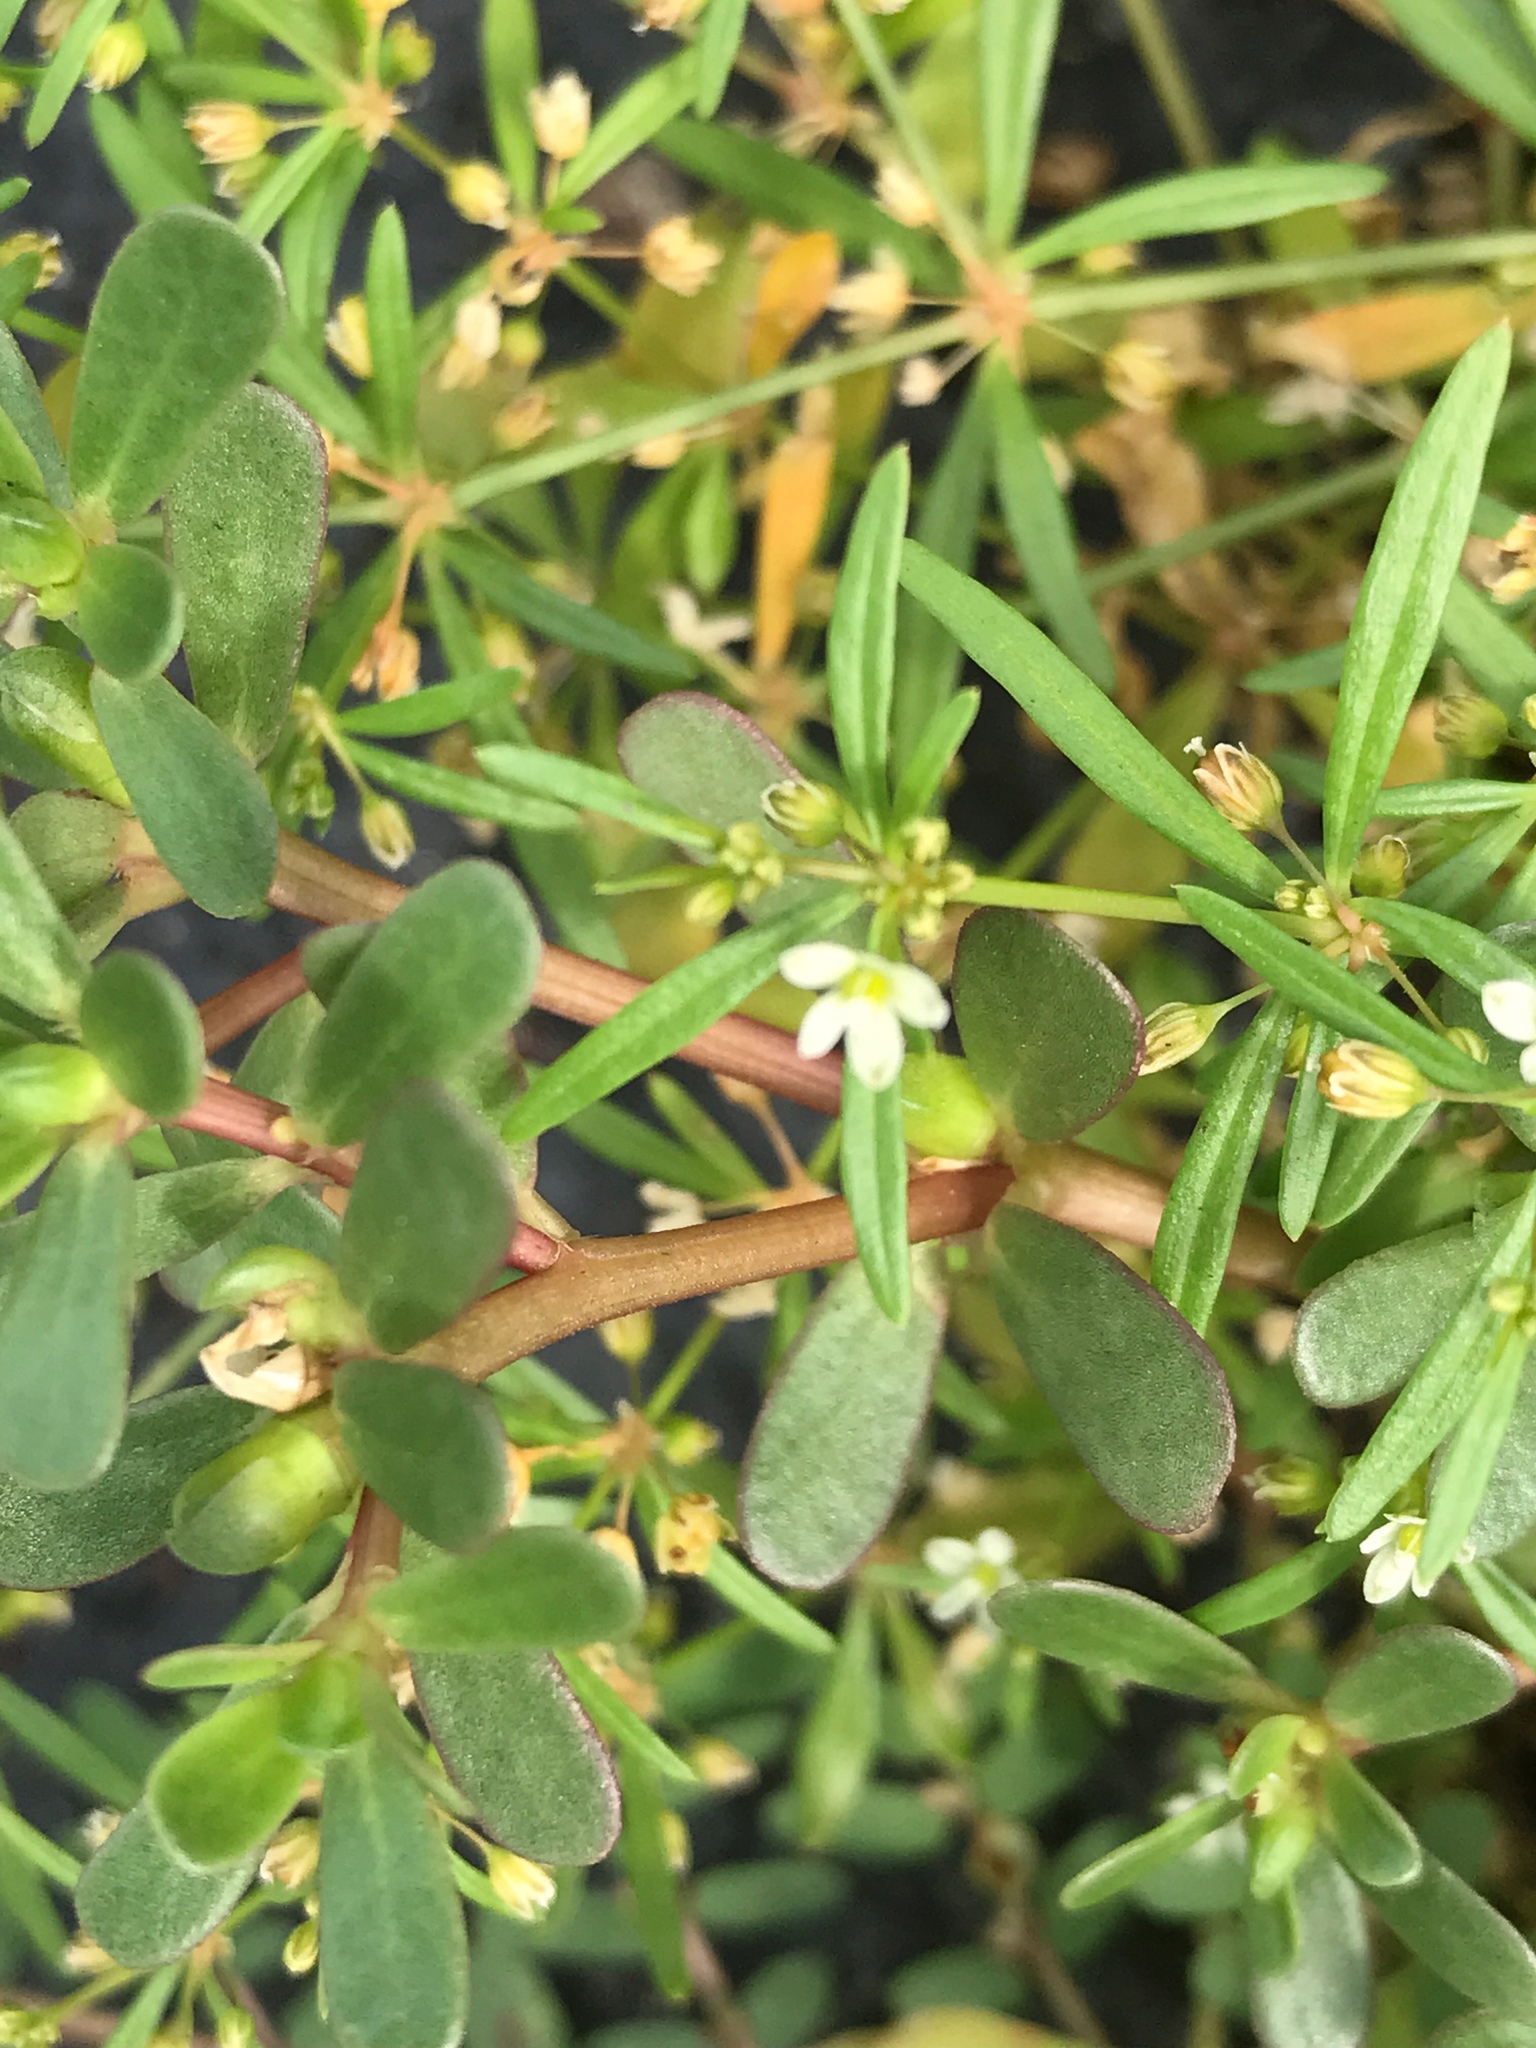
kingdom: Plantae
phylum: Tracheophyta
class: Magnoliopsida
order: Caryophyllales
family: Molluginaceae
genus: Mollugo
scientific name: Mollugo verticillata
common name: Green carpetweed
